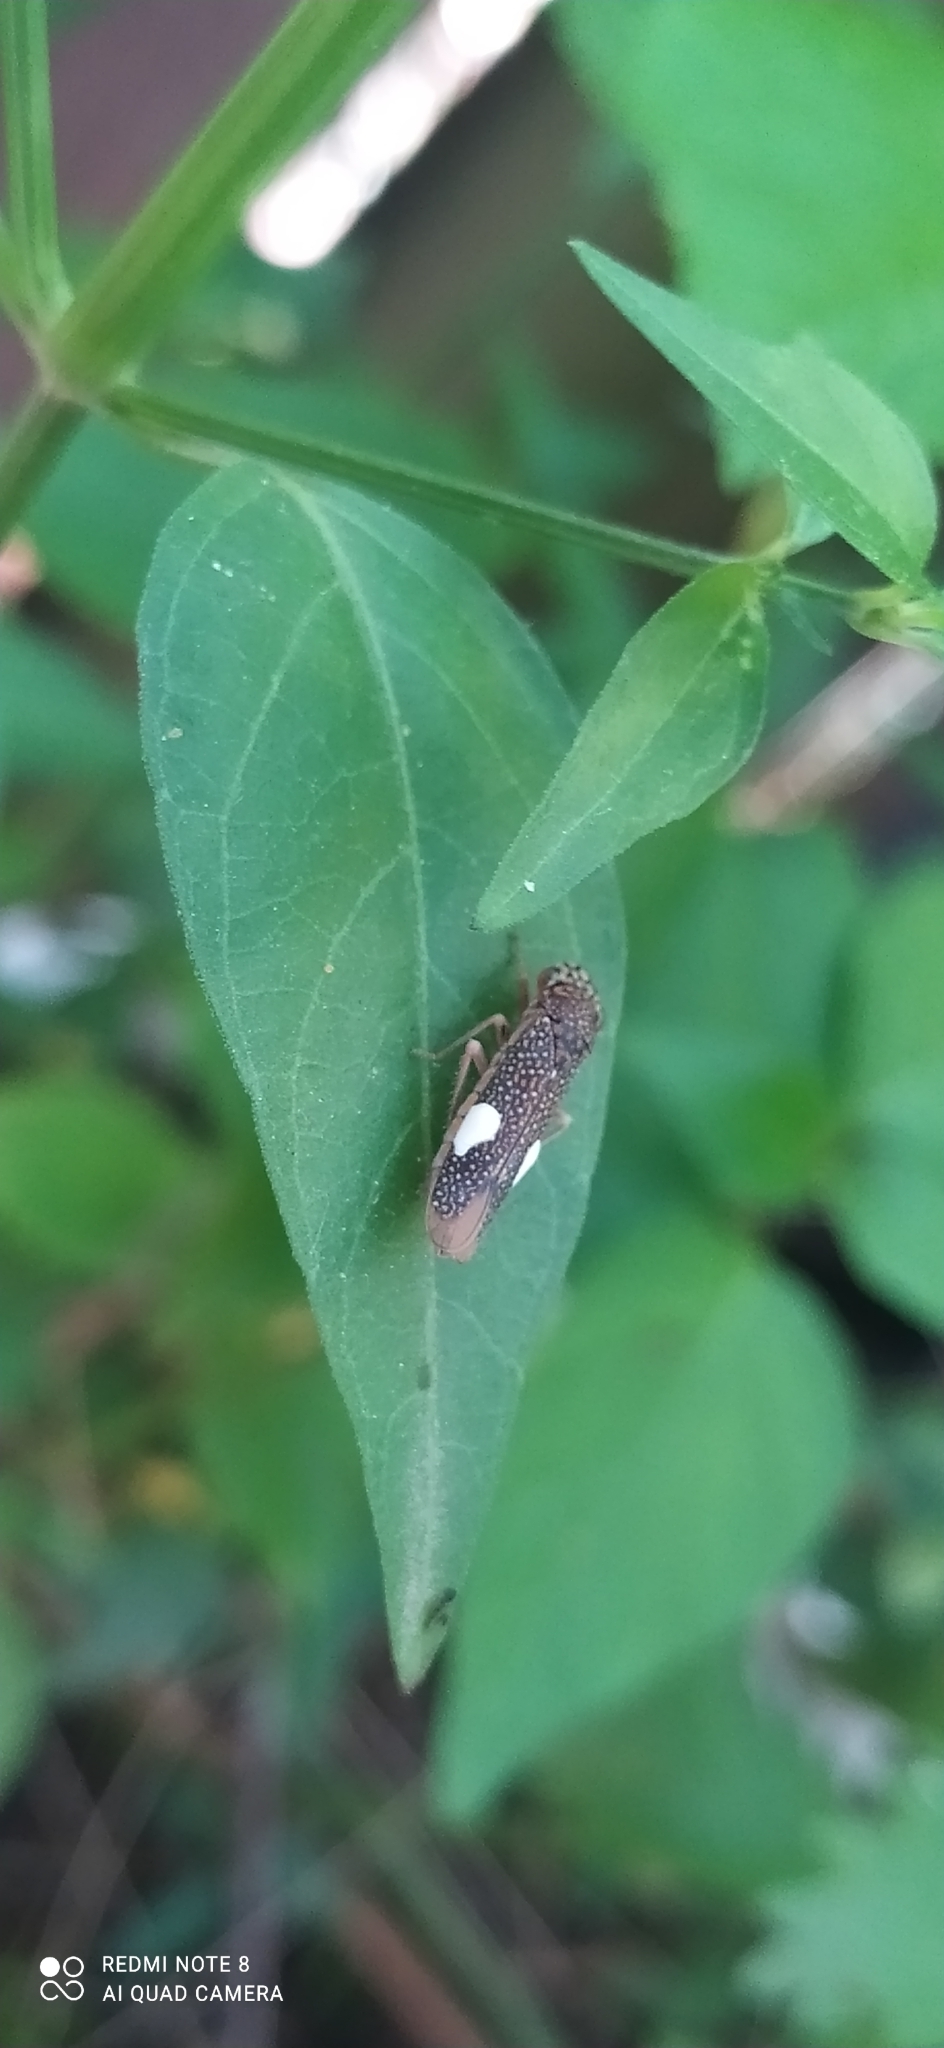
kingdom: Animalia
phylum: Arthropoda
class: Insecta
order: Hemiptera
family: Cicadellidae
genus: Molomea
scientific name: Molomea lineiceps
